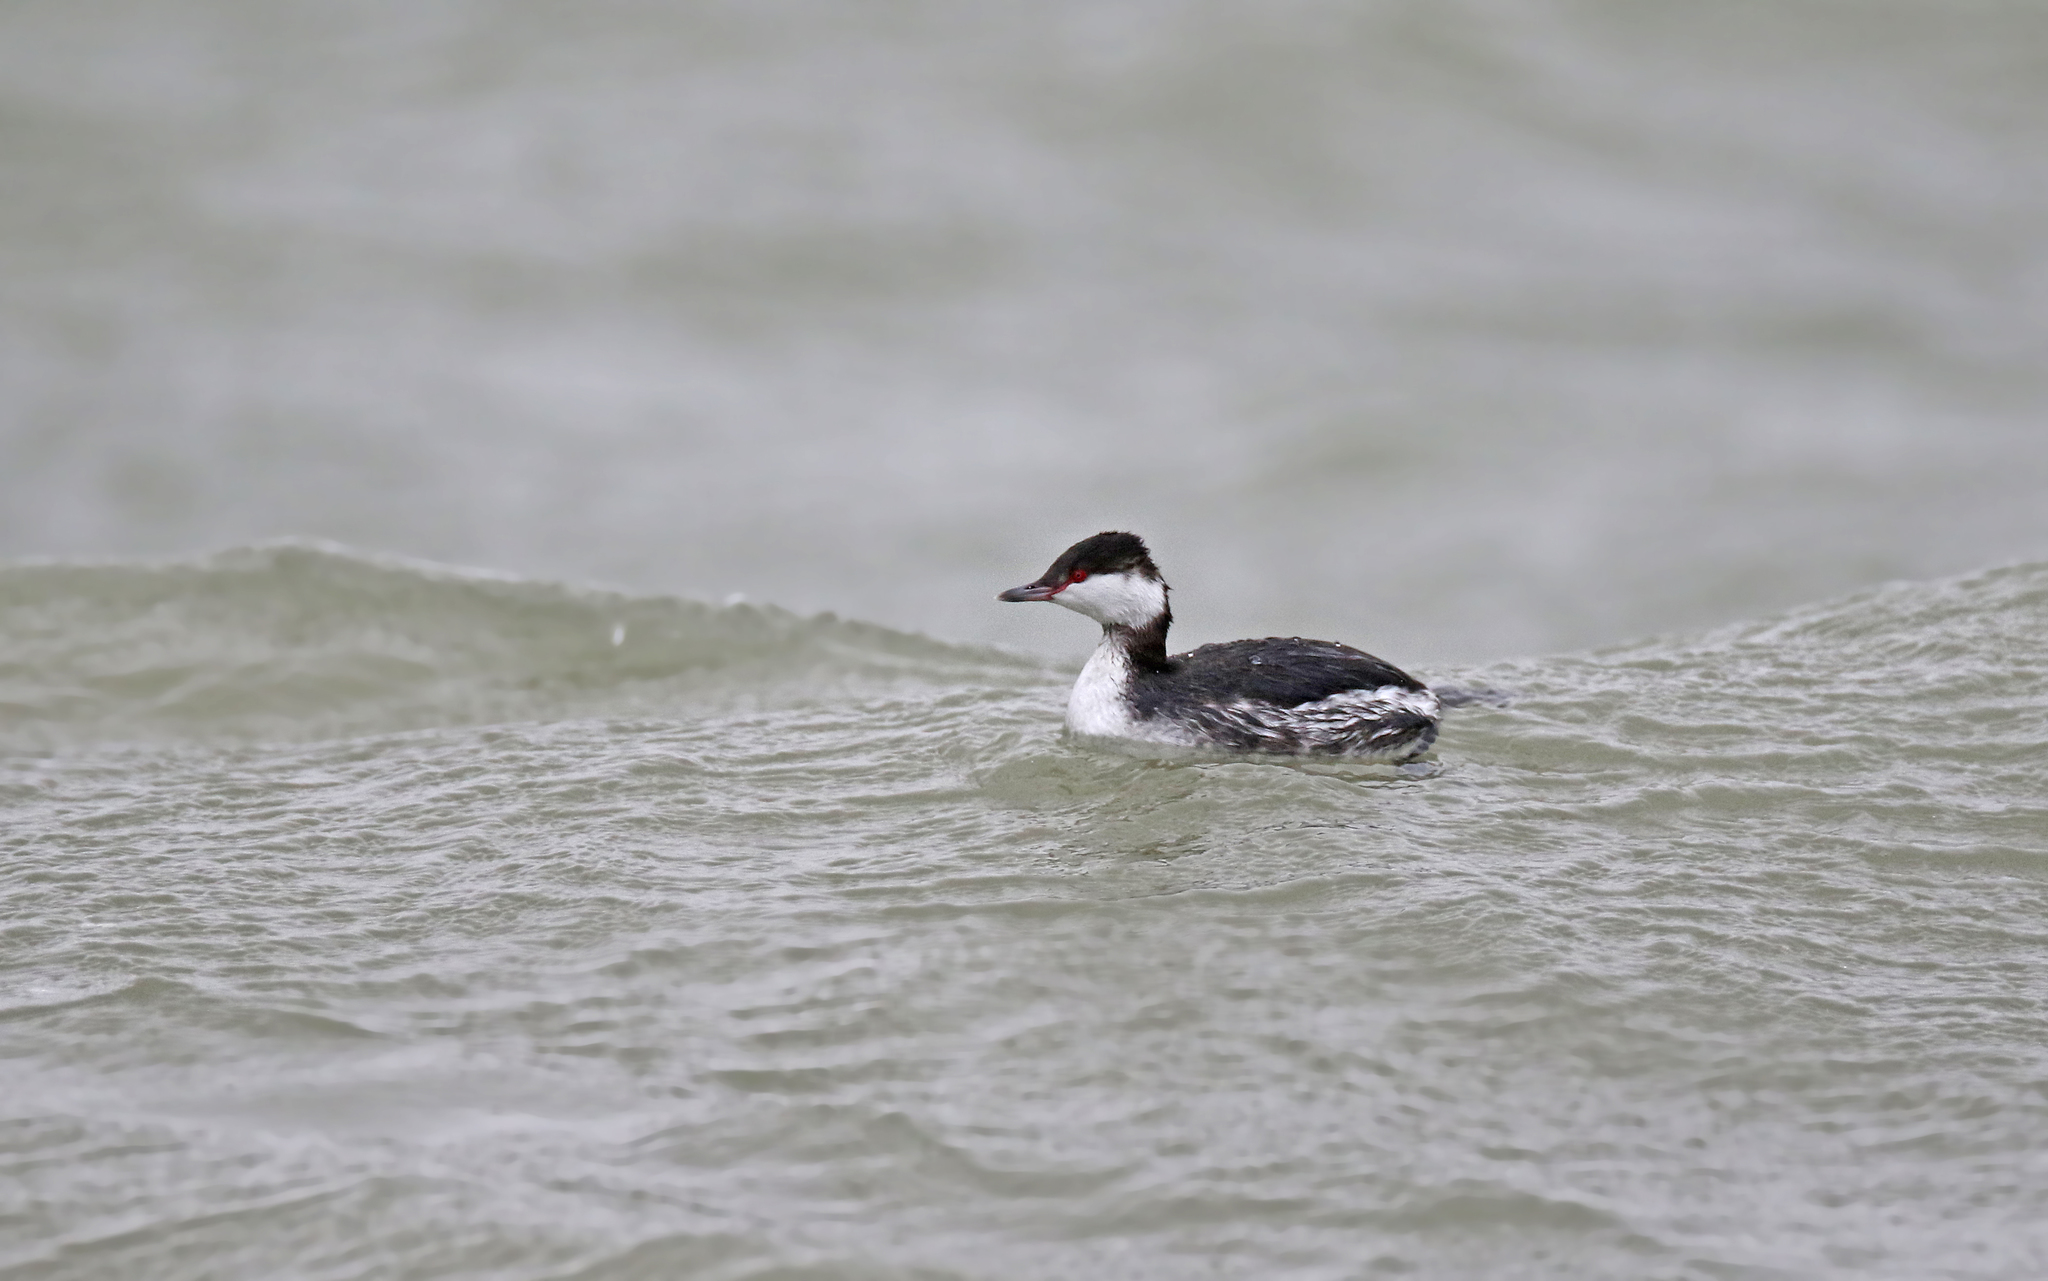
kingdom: Animalia
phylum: Chordata
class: Aves
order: Podicipediformes
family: Podicipedidae
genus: Podiceps
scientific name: Podiceps auritus
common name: Horned grebe
